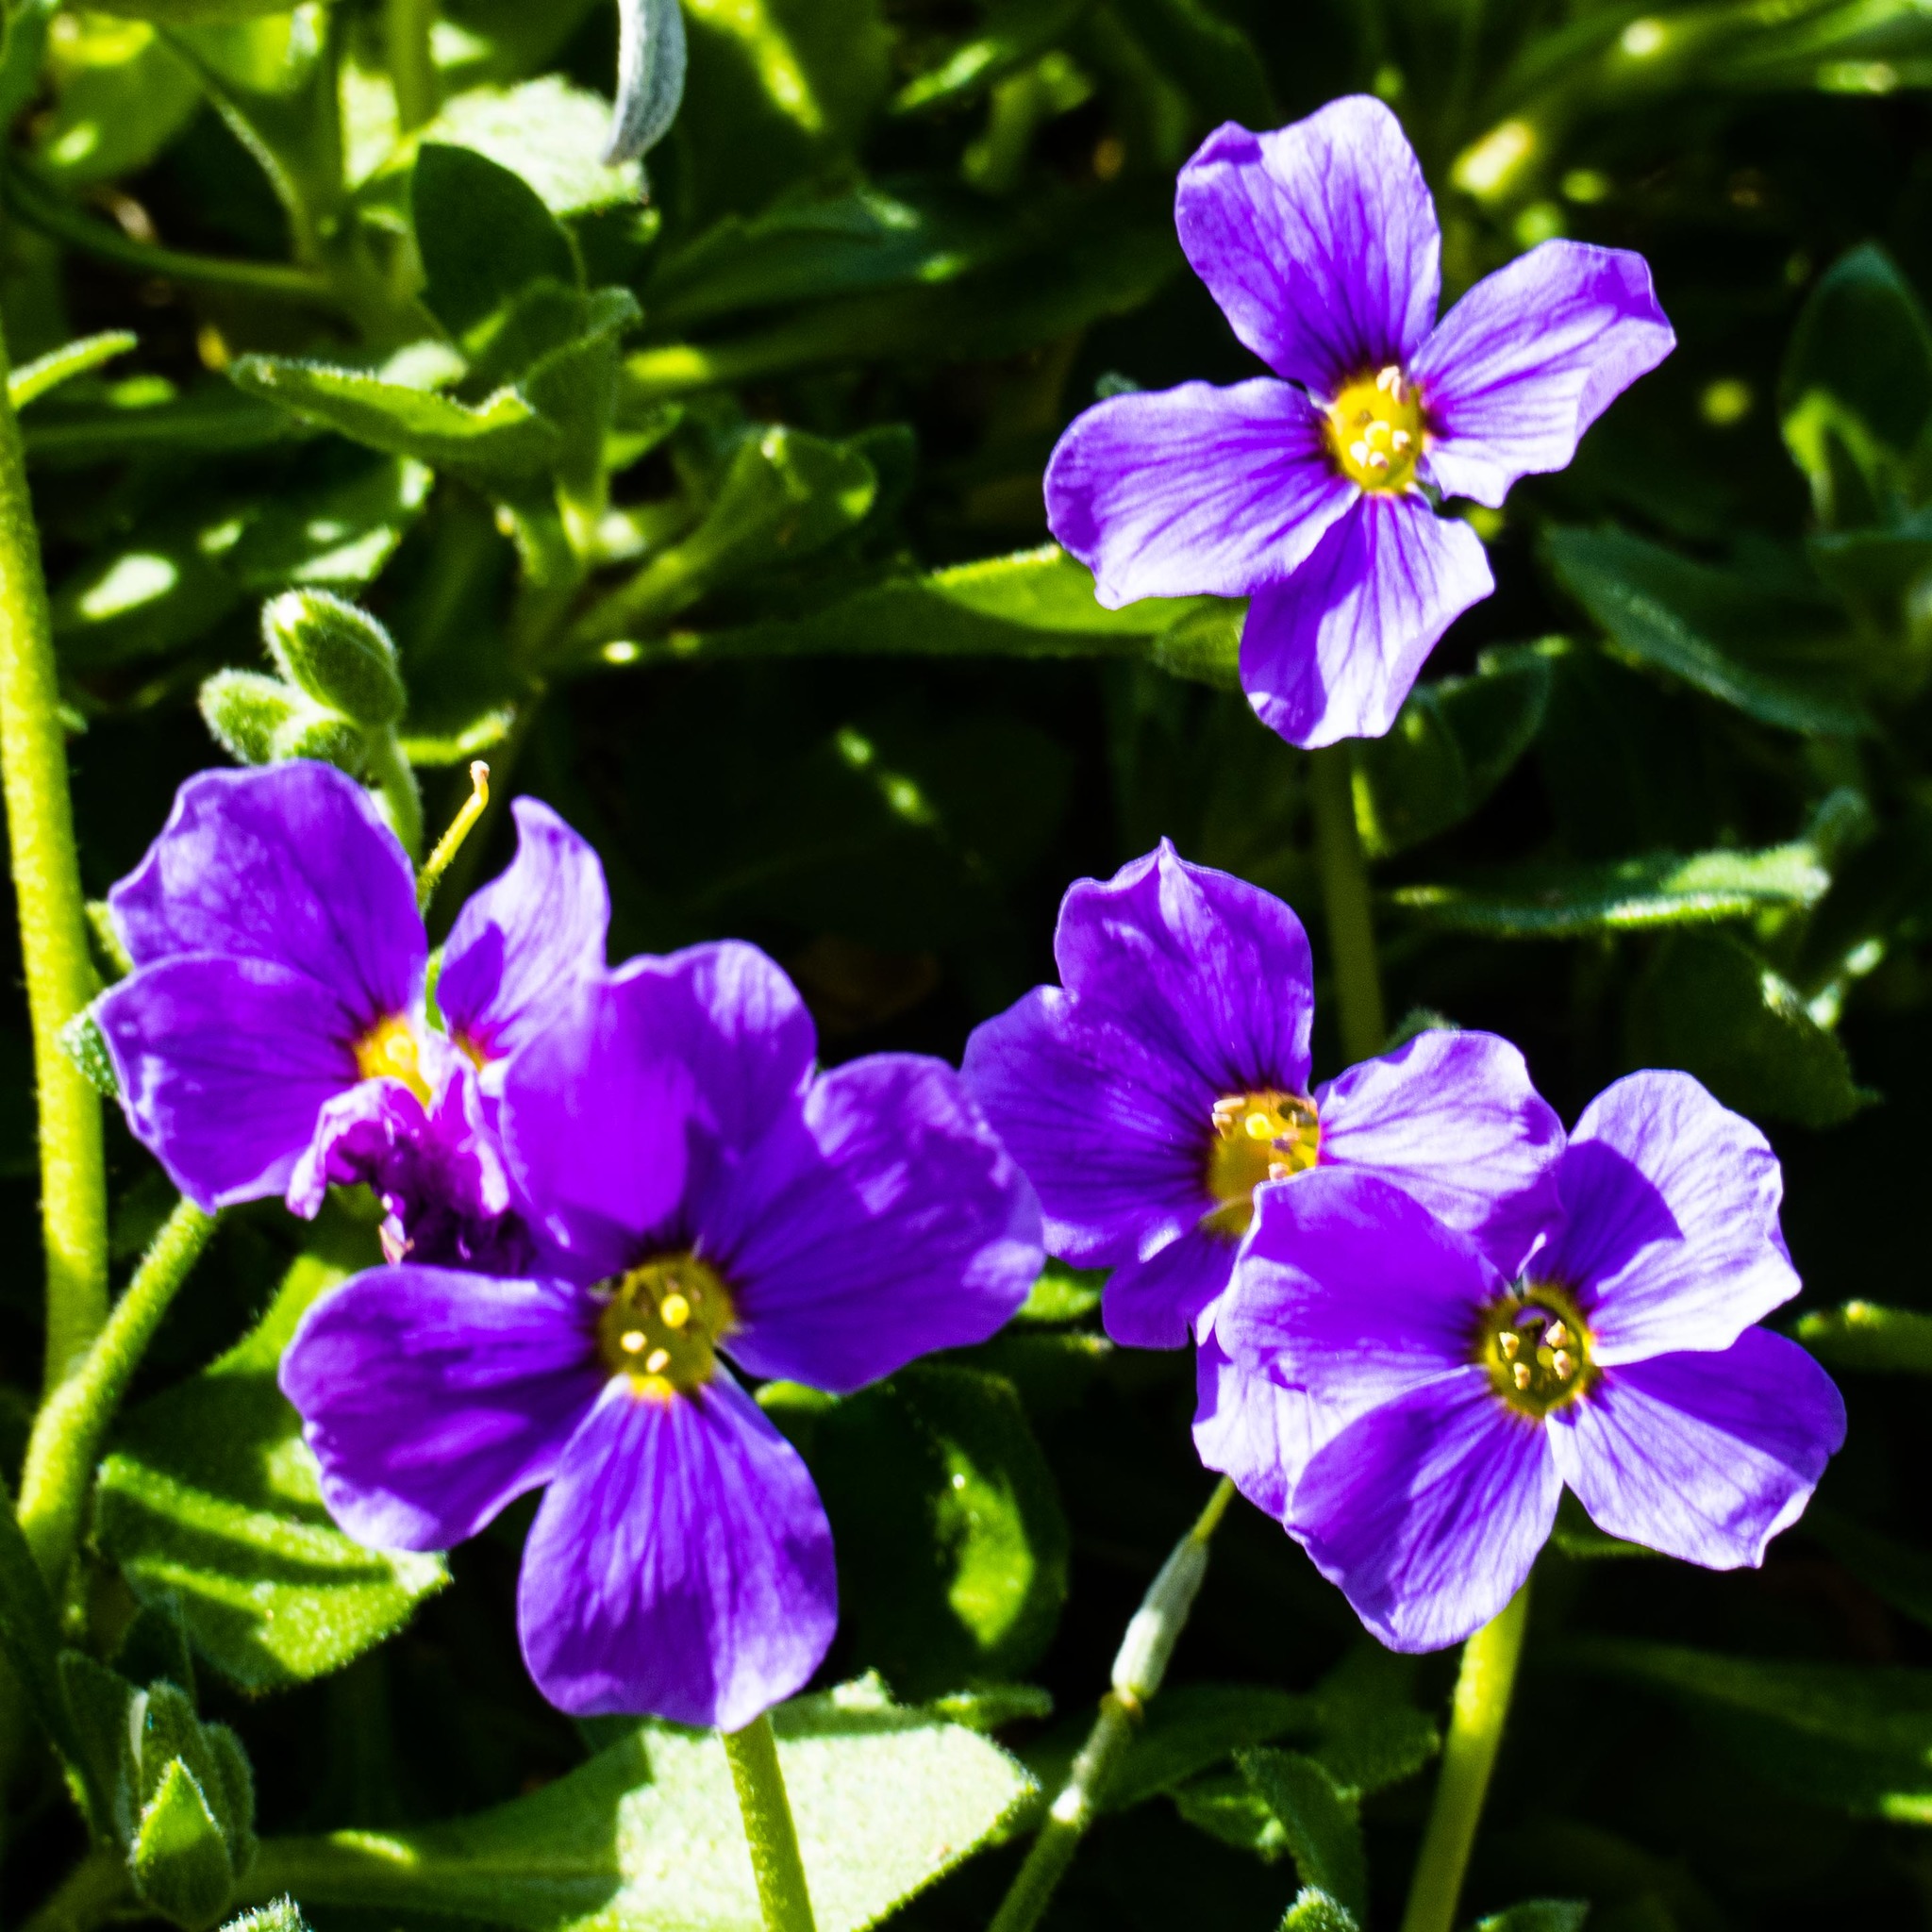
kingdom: Plantae
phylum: Tracheophyta
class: Magnoliopsida
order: Brassicales
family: Brassicaceae
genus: Aubrieta
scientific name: Aubrieta deltoidea
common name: Aubretia
